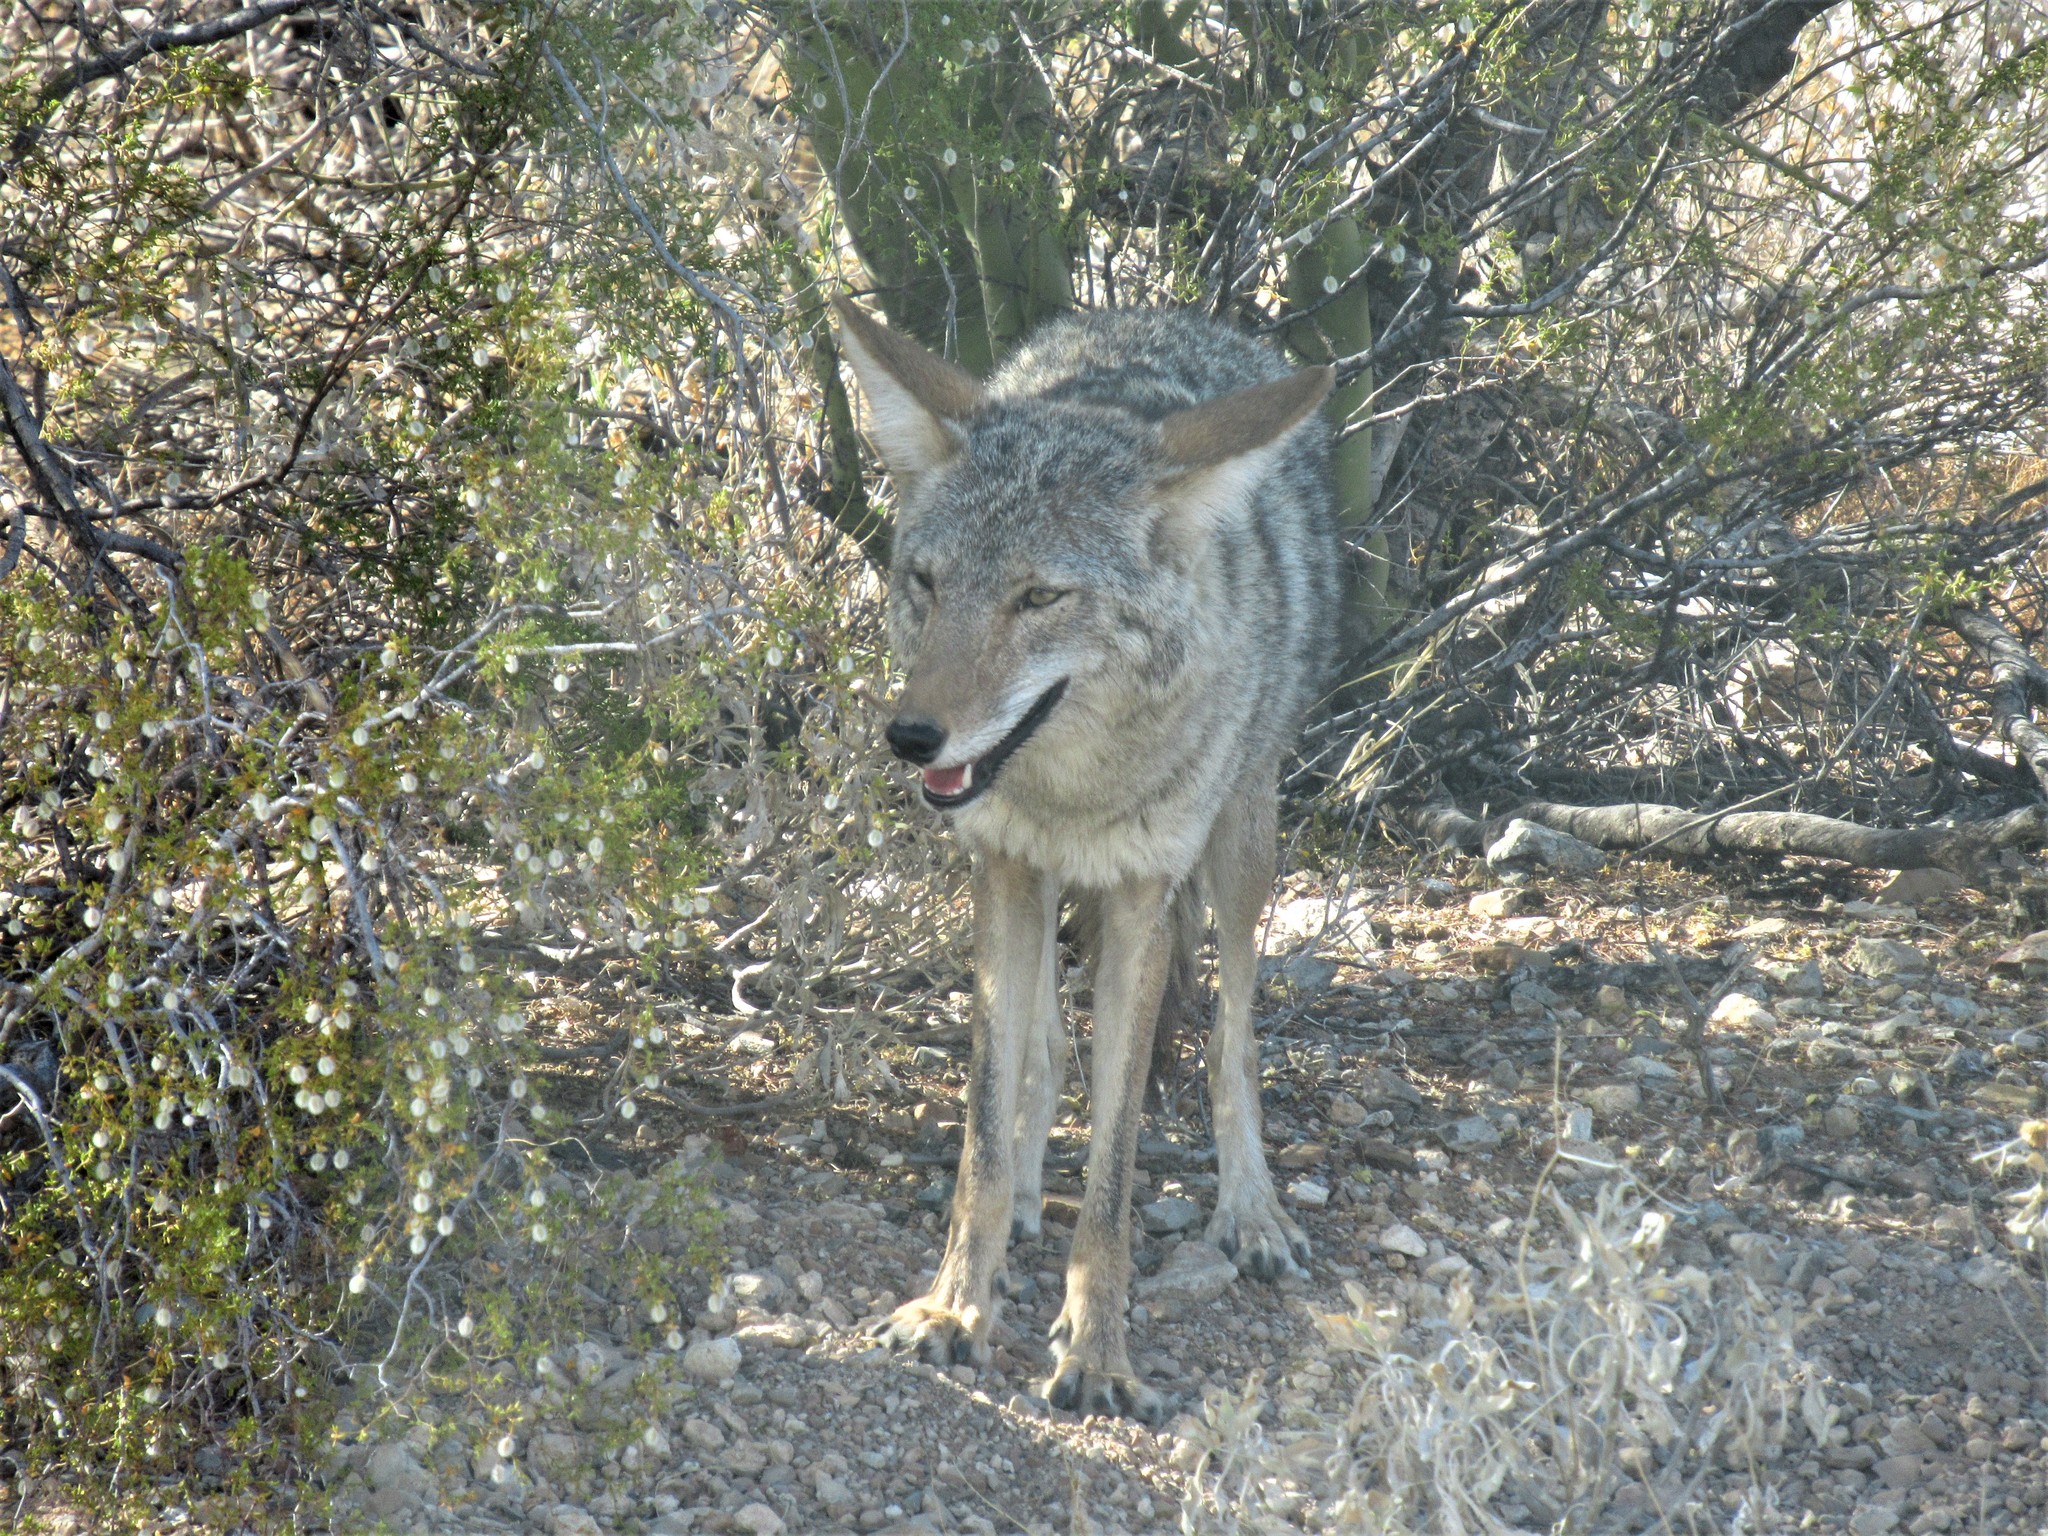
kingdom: Animalia
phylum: Chordata
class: Mammalia
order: Carnivora
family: Canidae
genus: Canis
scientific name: Canis latrans
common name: Coyote
